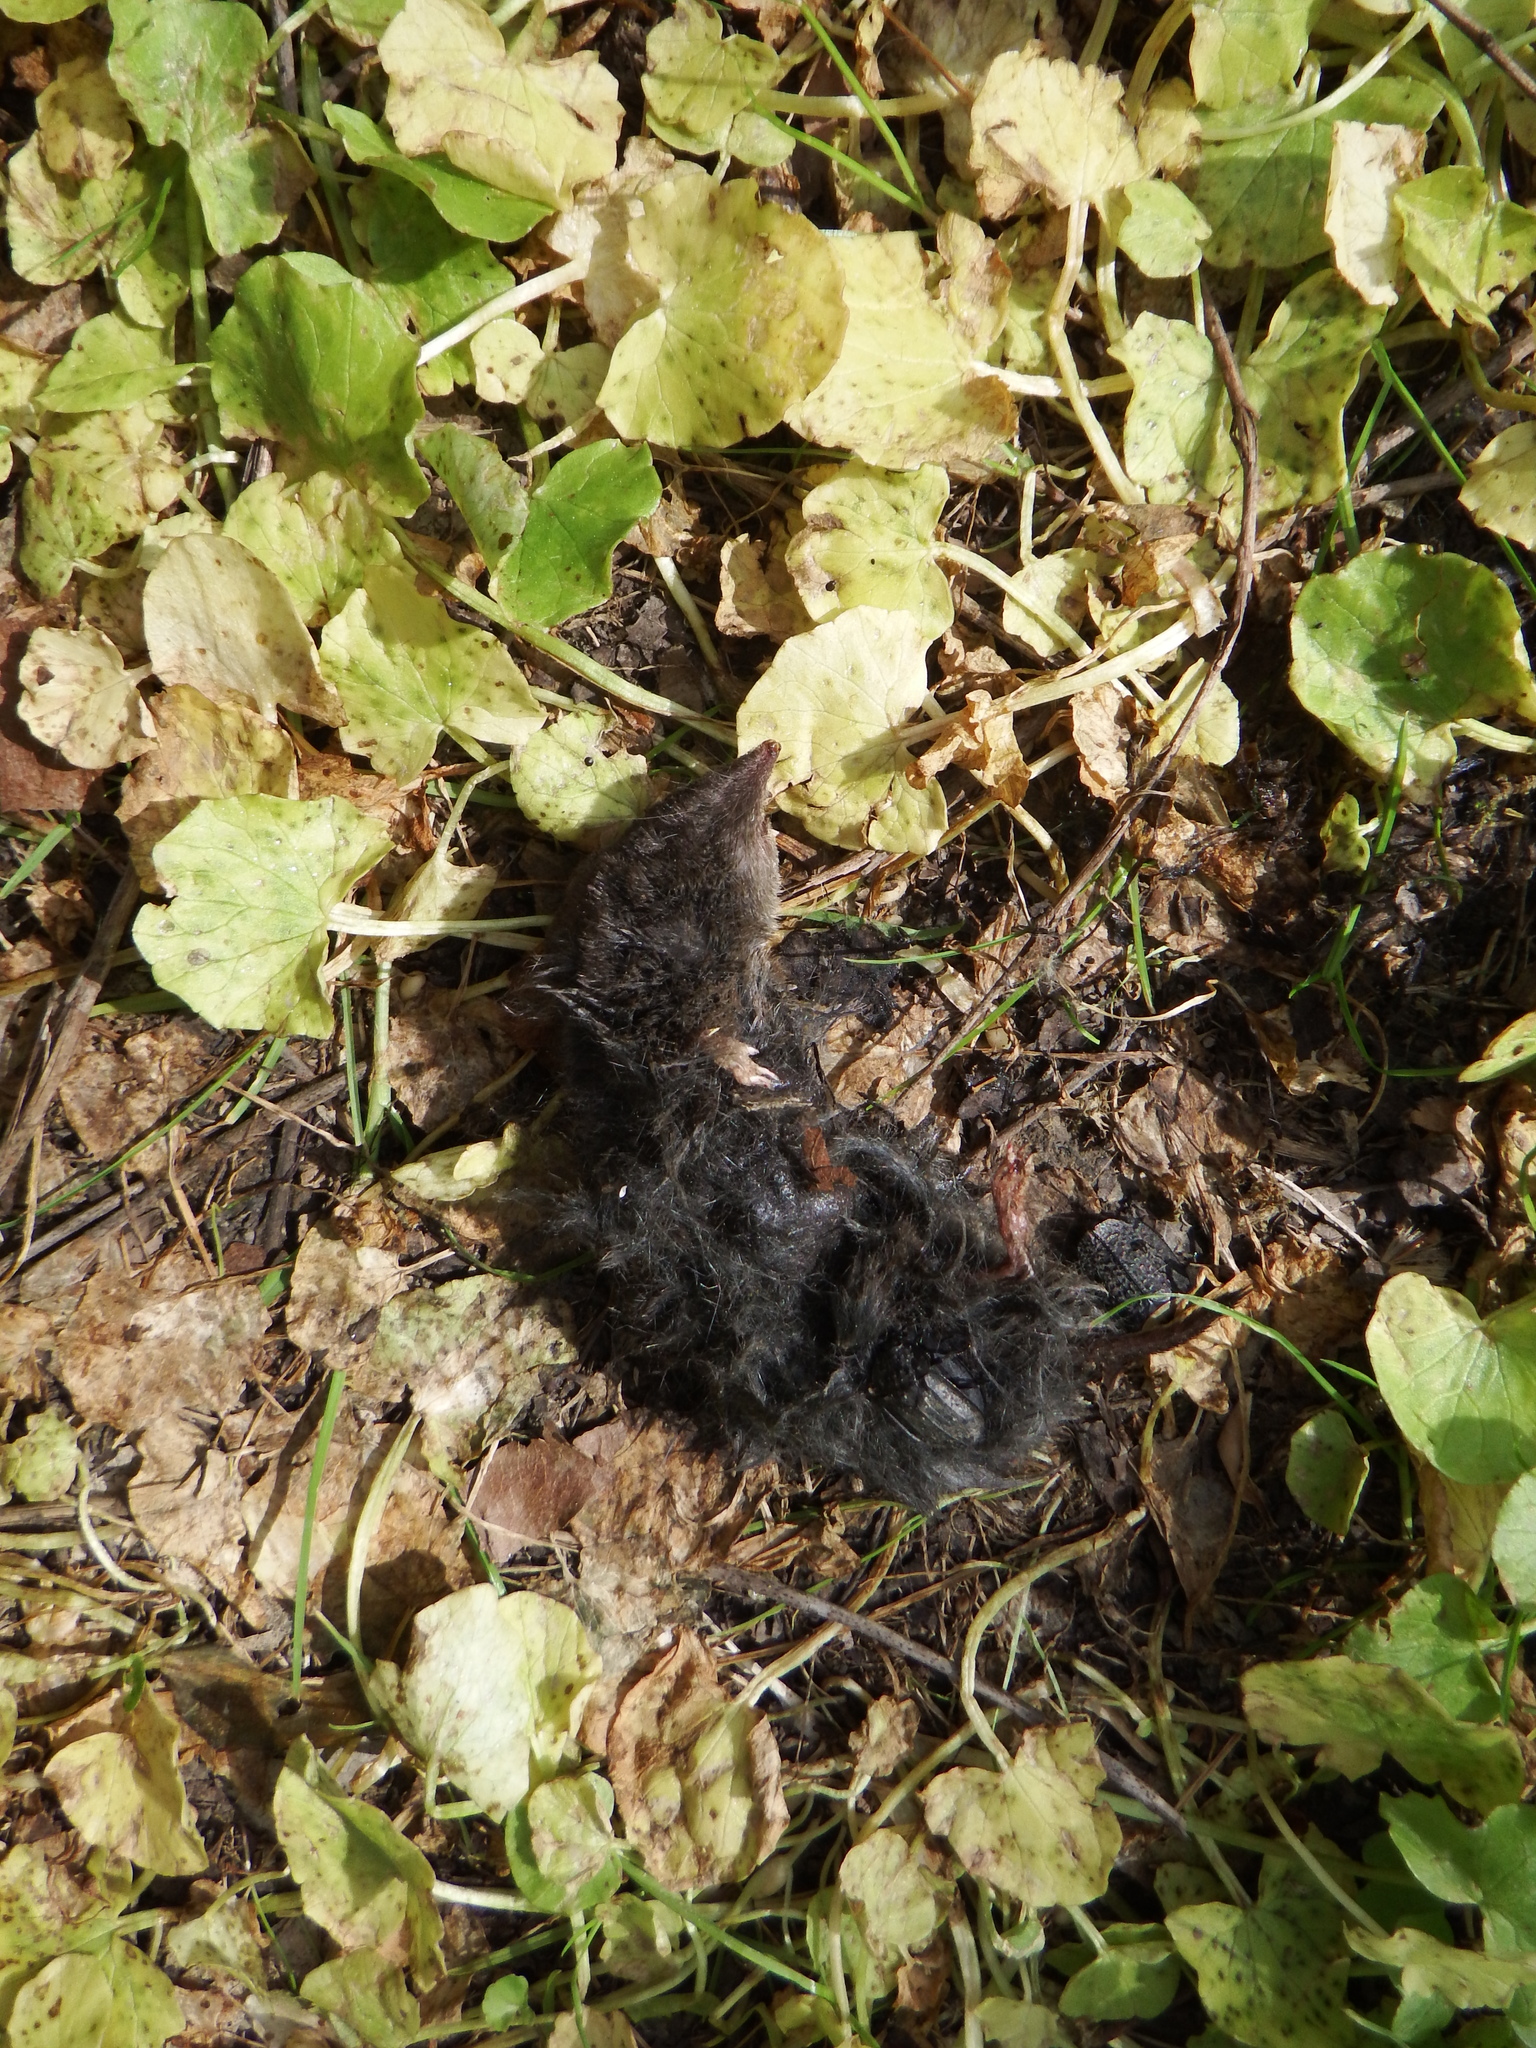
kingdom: Animalia
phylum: Arthropoda
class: Insecta
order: Coleoptera
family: Staphylinidae
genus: Necrophila
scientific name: Necrophila americana
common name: American carrion beetle
